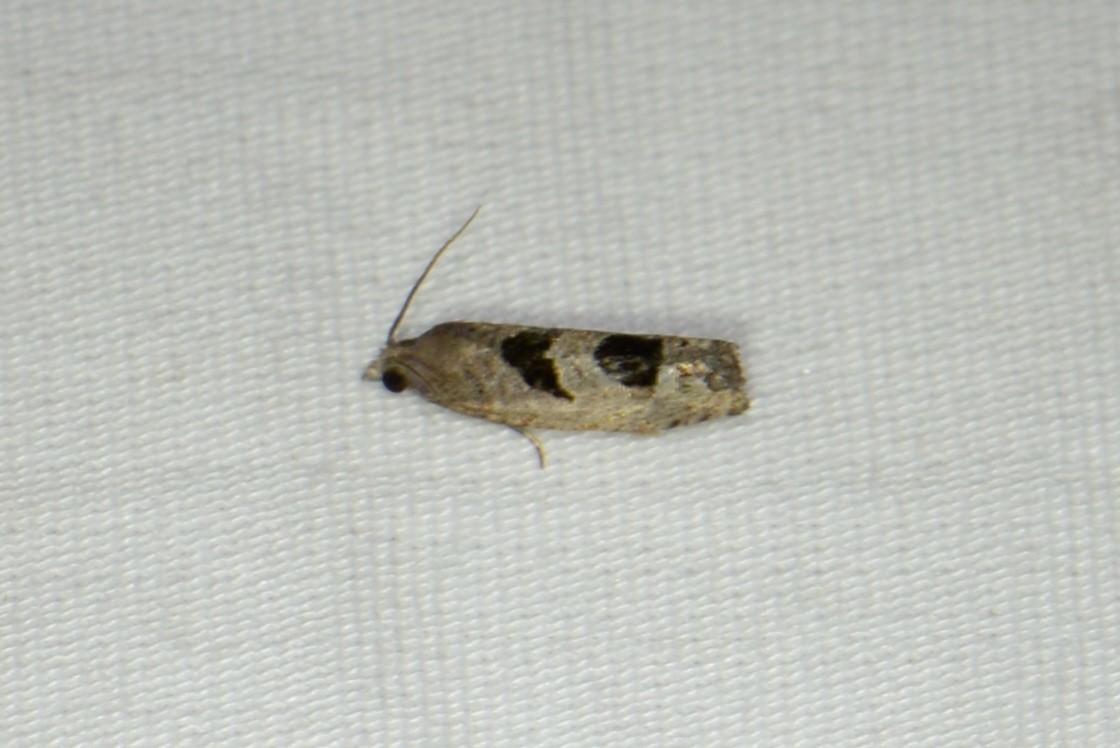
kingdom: Animalia
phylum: Arthropoda
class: Insecta
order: Lepidoptera
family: Tortricidae
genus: Eucosma
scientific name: Eucosma tomonana
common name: Aster-head eucosma moth
